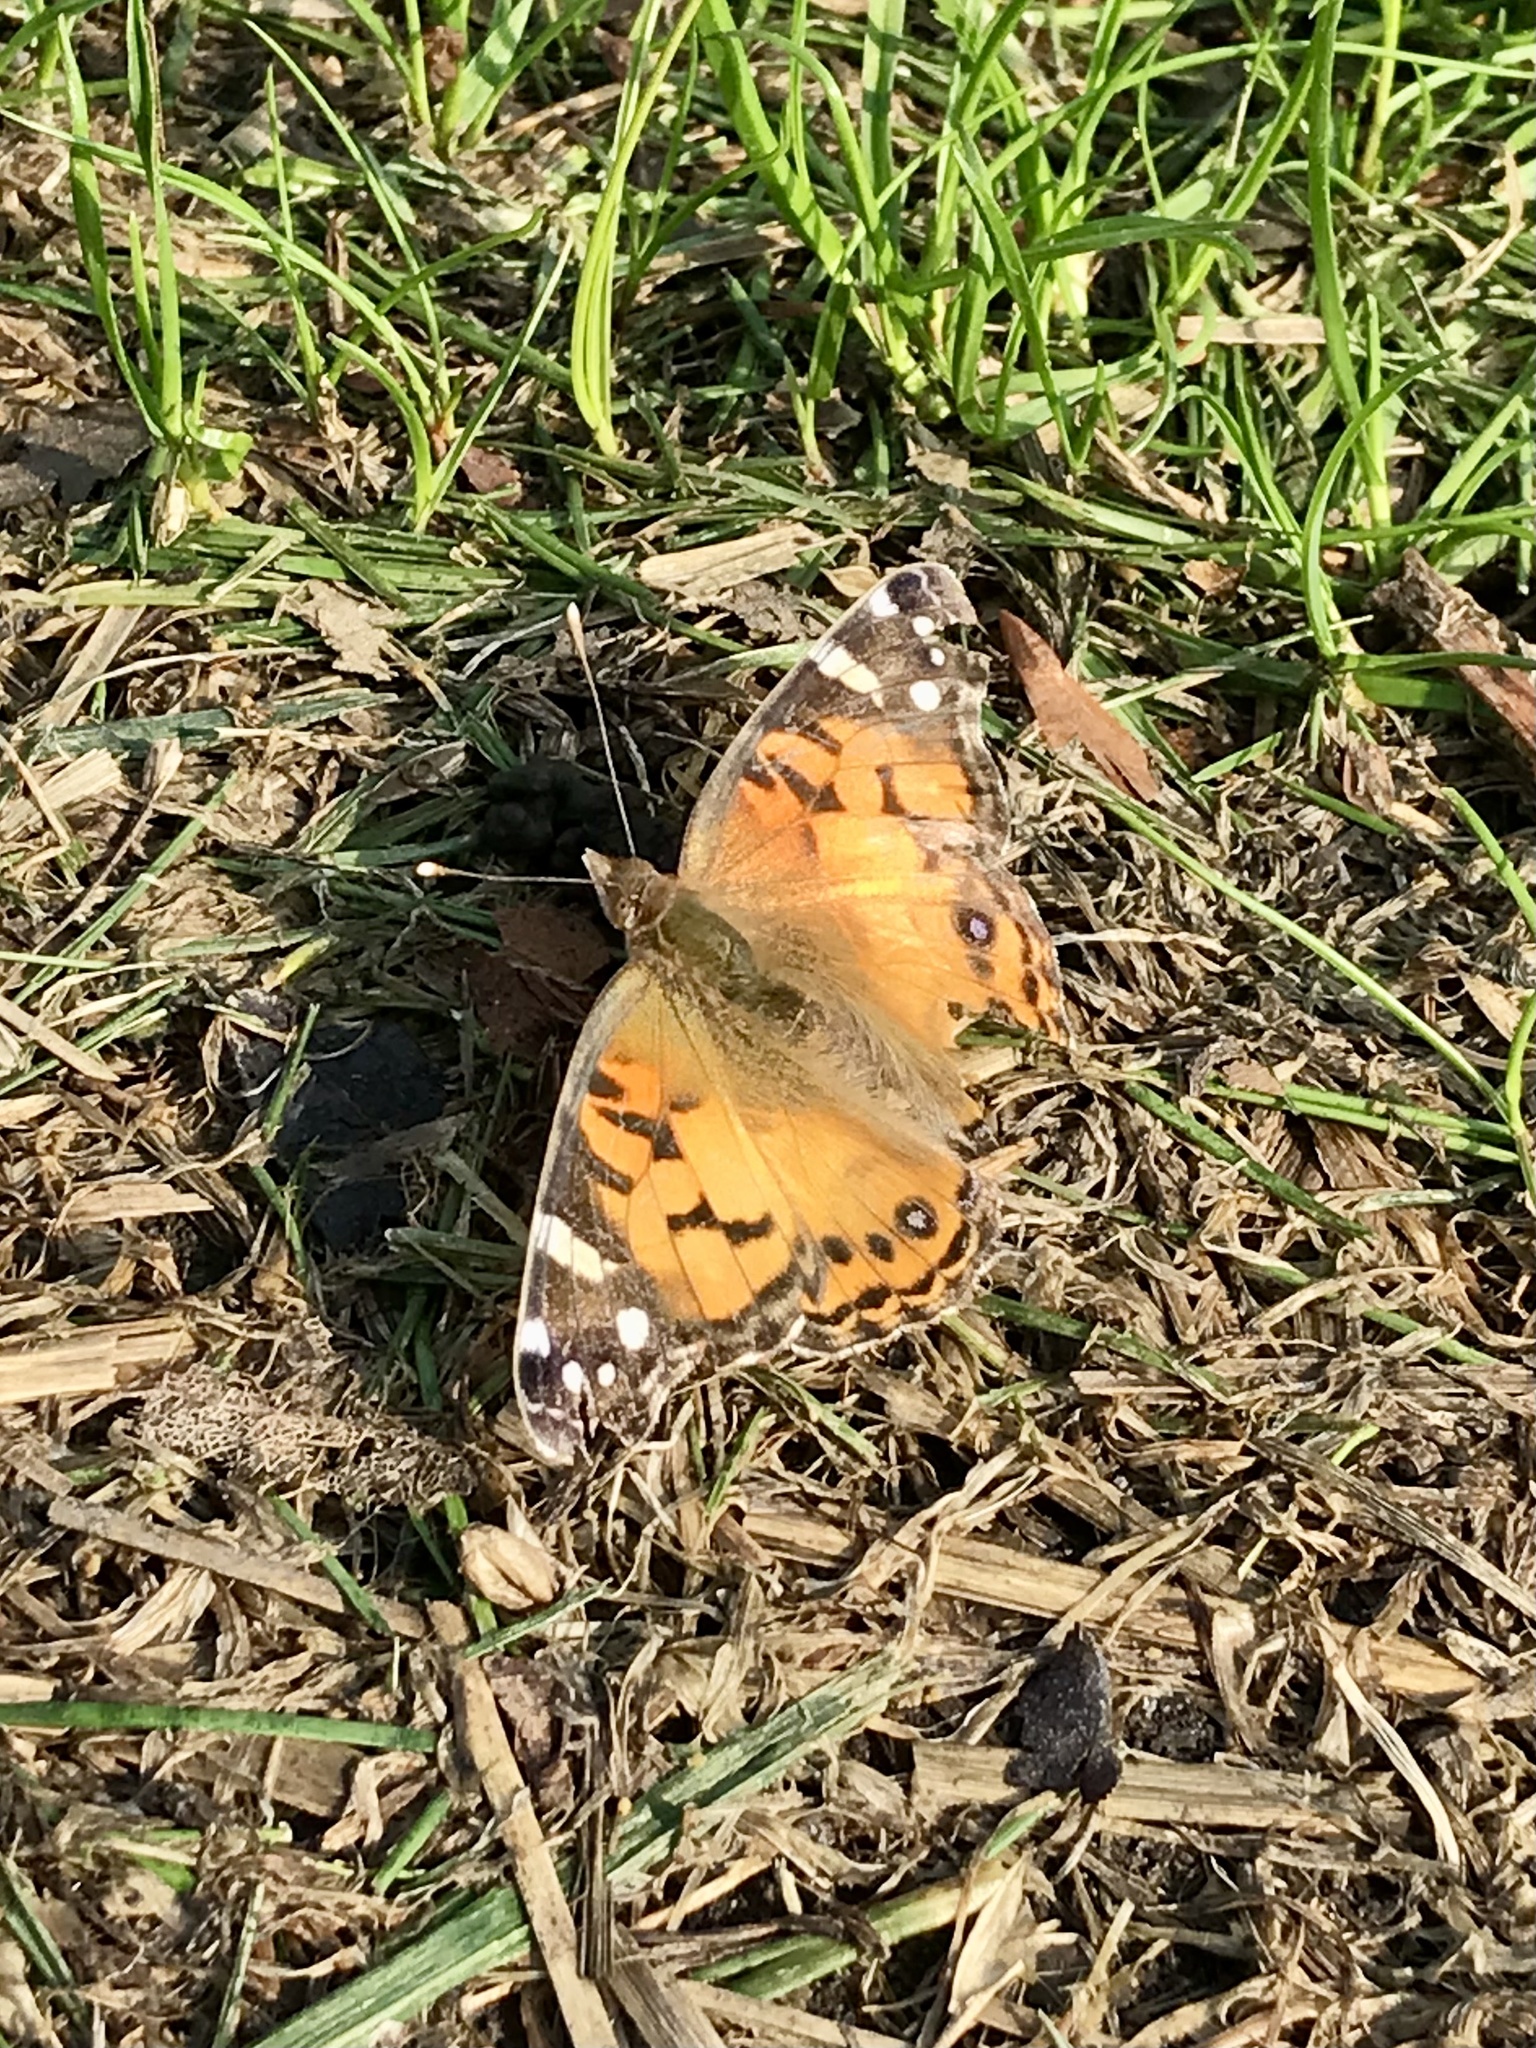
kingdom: Animalia
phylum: Arthropoda
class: Insecta
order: Lepidoptera
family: Nymphalidae
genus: Vanessa
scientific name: Vanessa virginiensis
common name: American lady
